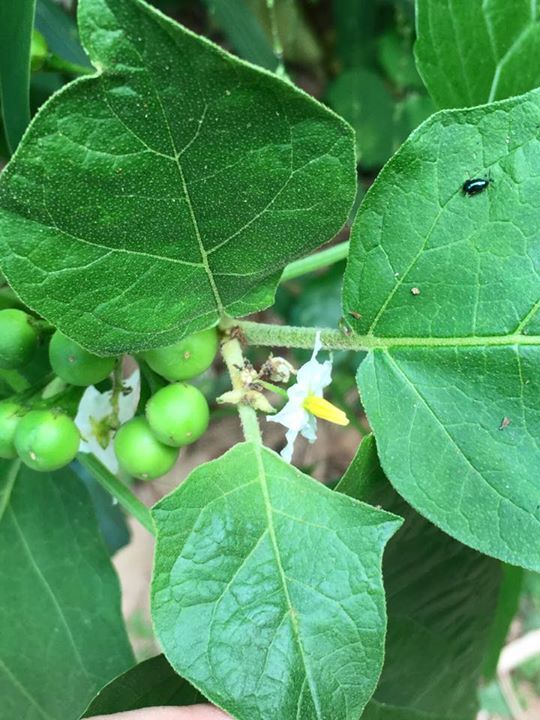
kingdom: Plantae
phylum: Tracheophyta
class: Magnoliopsida
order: Solanales
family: Solanaceae
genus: Solanum
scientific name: Solanum torvum
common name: Turkey berry
